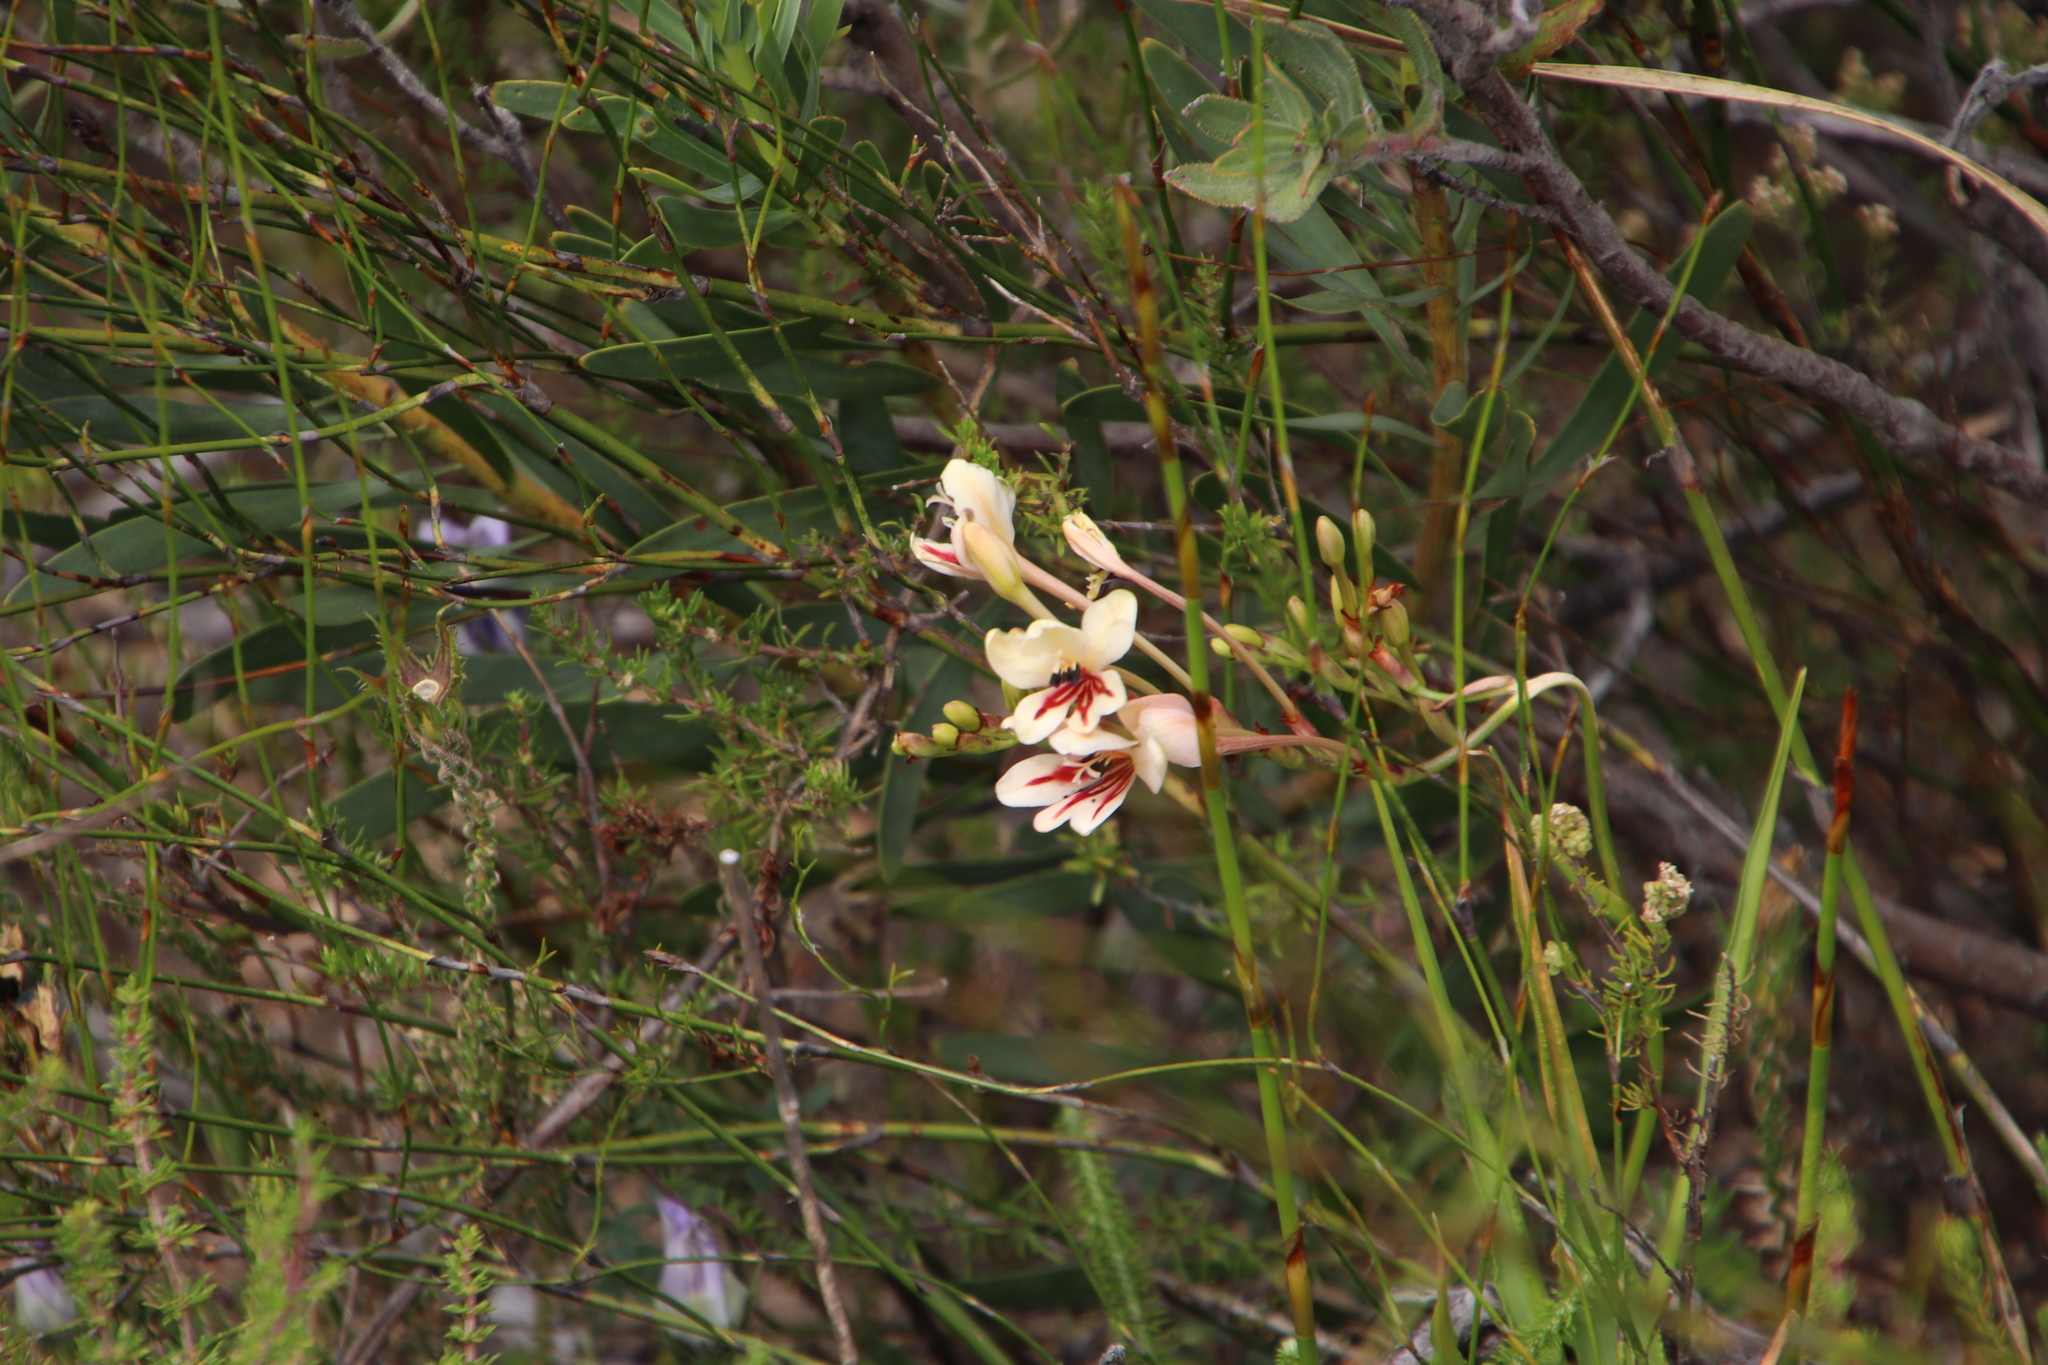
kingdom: Plantae
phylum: Tracheophyta
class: Liliopsida
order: Asparagales
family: Iridaceae
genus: Tritonia
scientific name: Tritonia undulata
